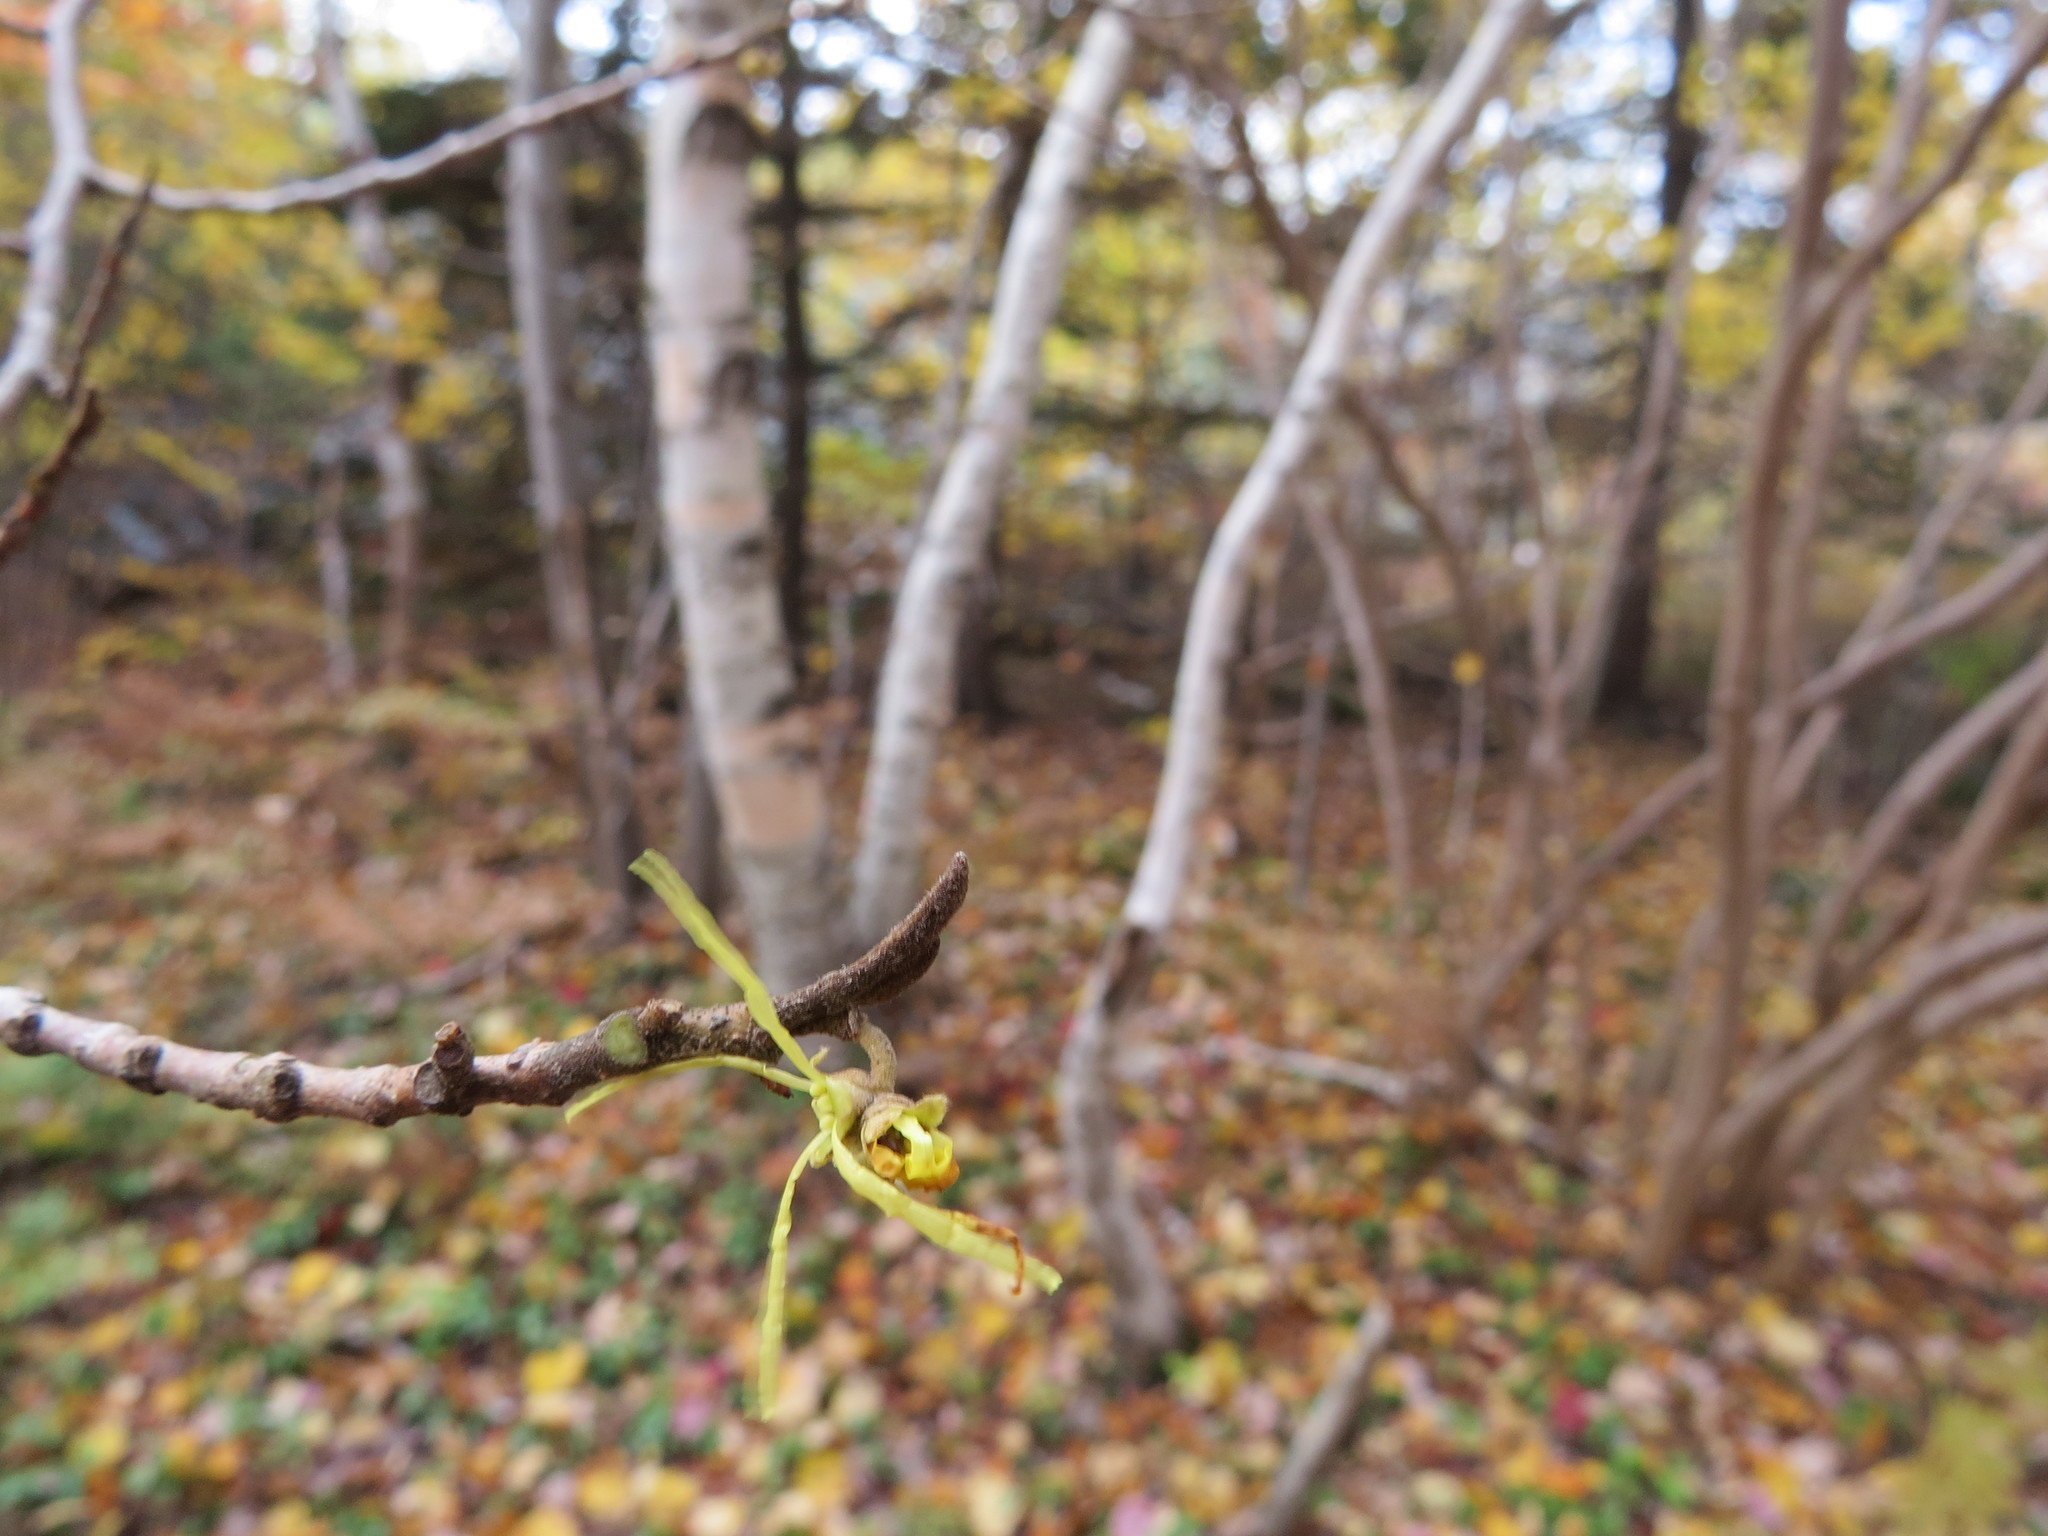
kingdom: Plantae
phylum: Tracheophyta
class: Magnoliopsida
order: Saxifragales
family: Hamamelidaceae
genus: Hamamelis
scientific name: Hamamelis virginiana
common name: Witch-hazel
